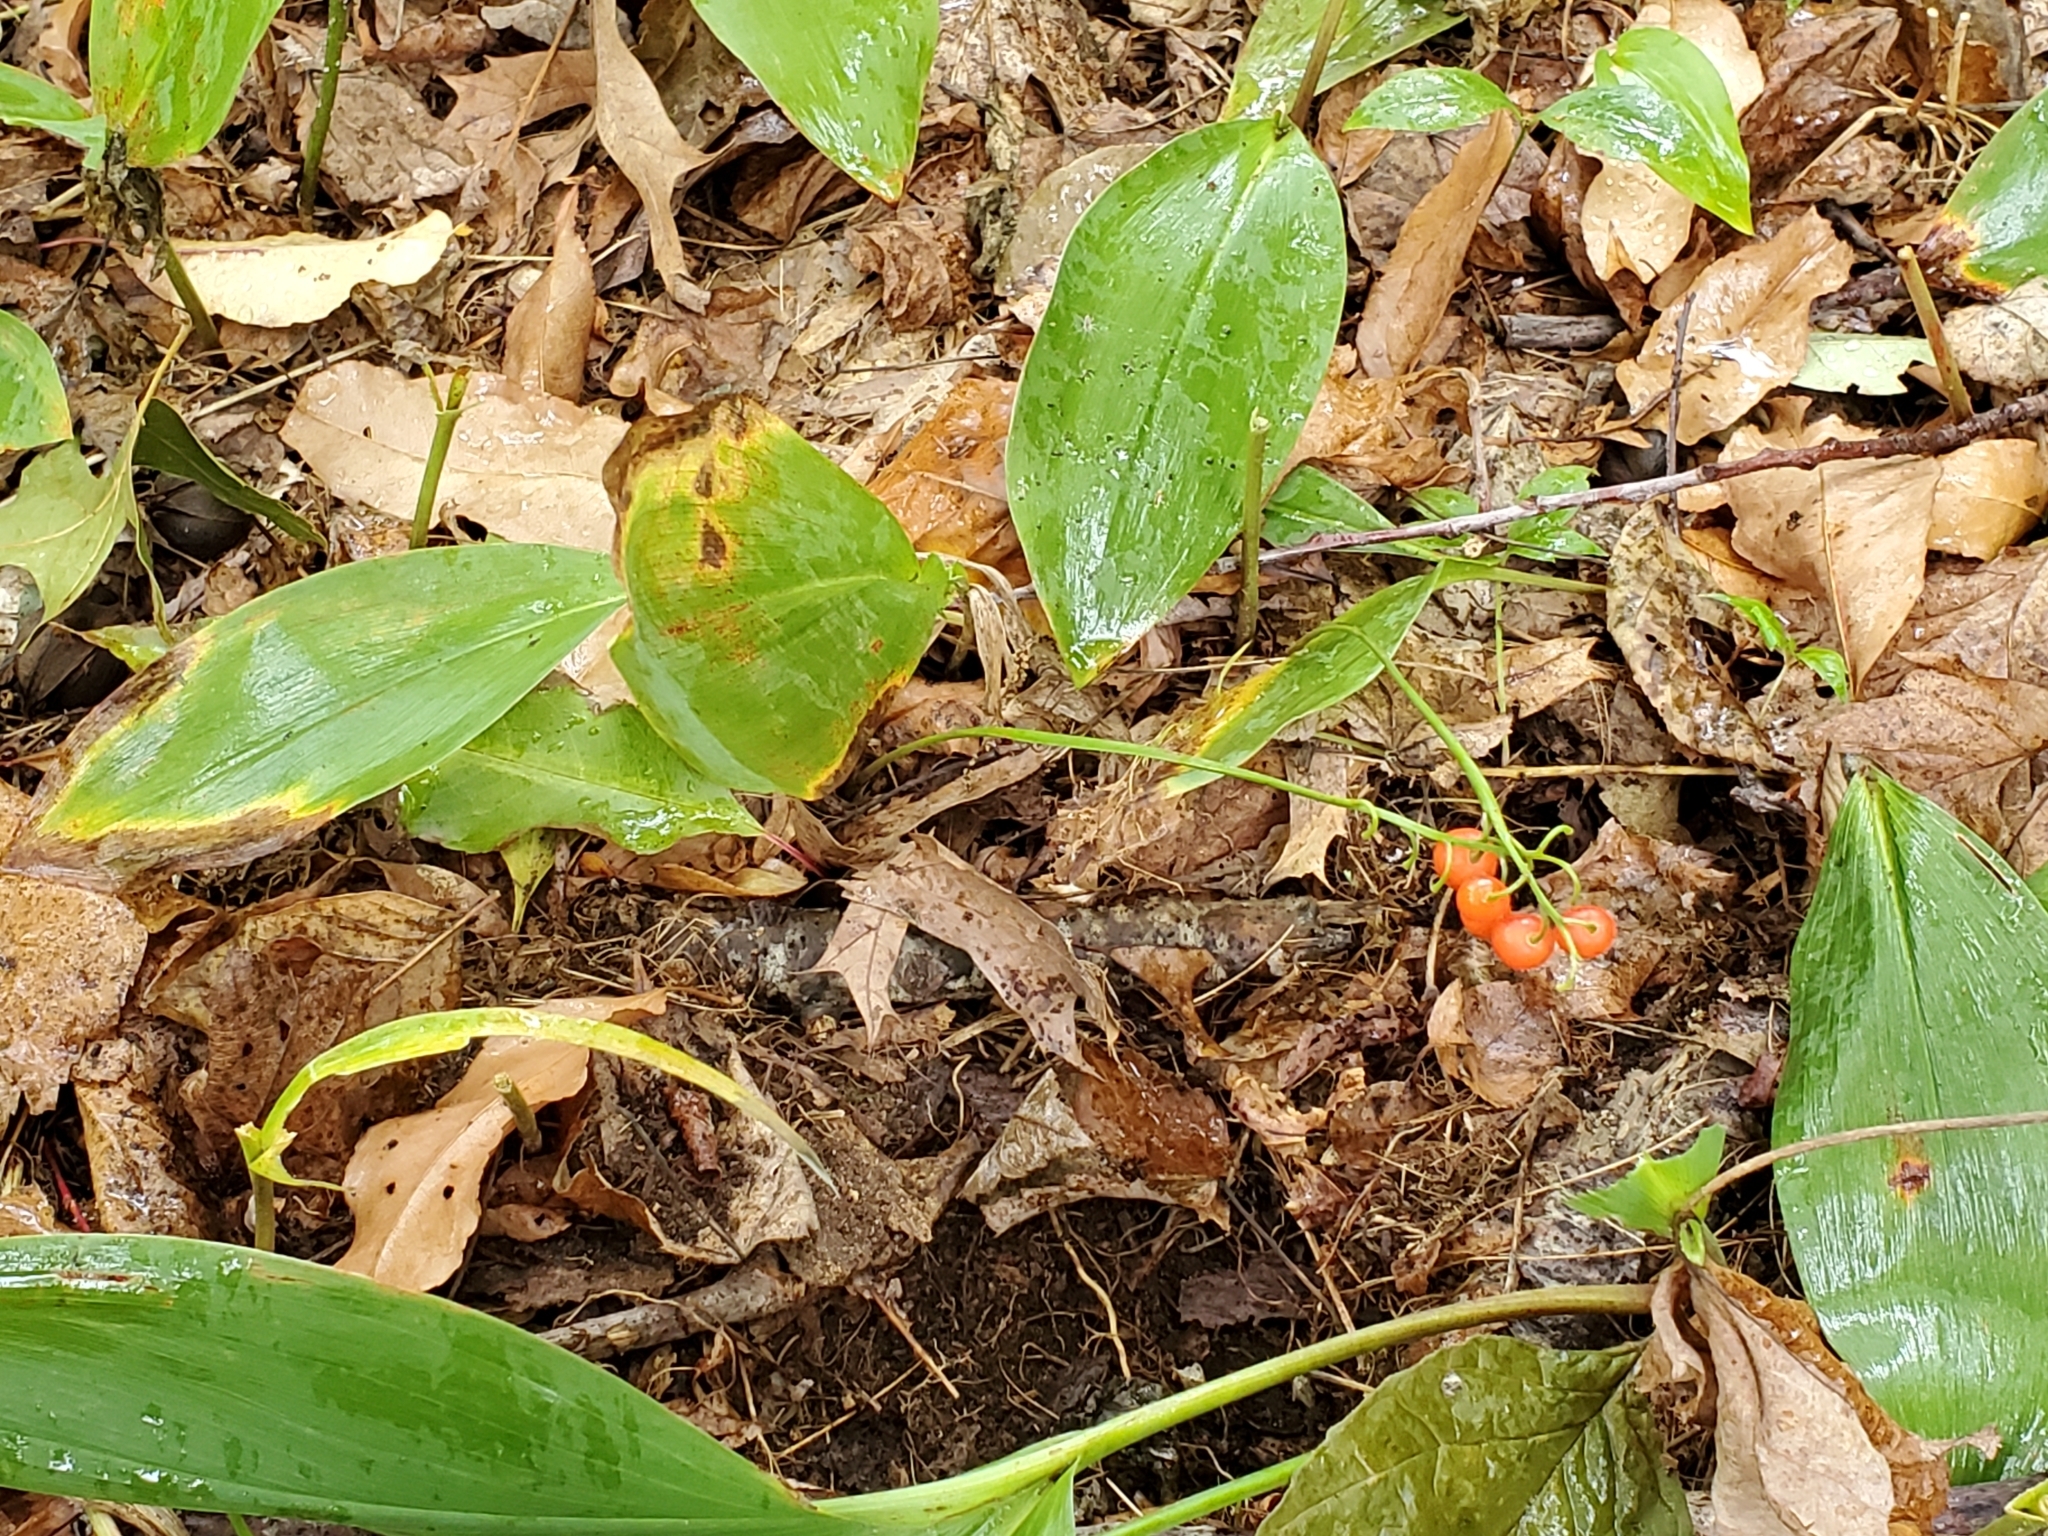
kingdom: Plantae
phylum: Tracheophyta
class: Liliopsida
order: Asparagales
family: Asparagaceae
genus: Convallaria
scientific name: Convallaria majalis
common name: Lily-of-the-valley
